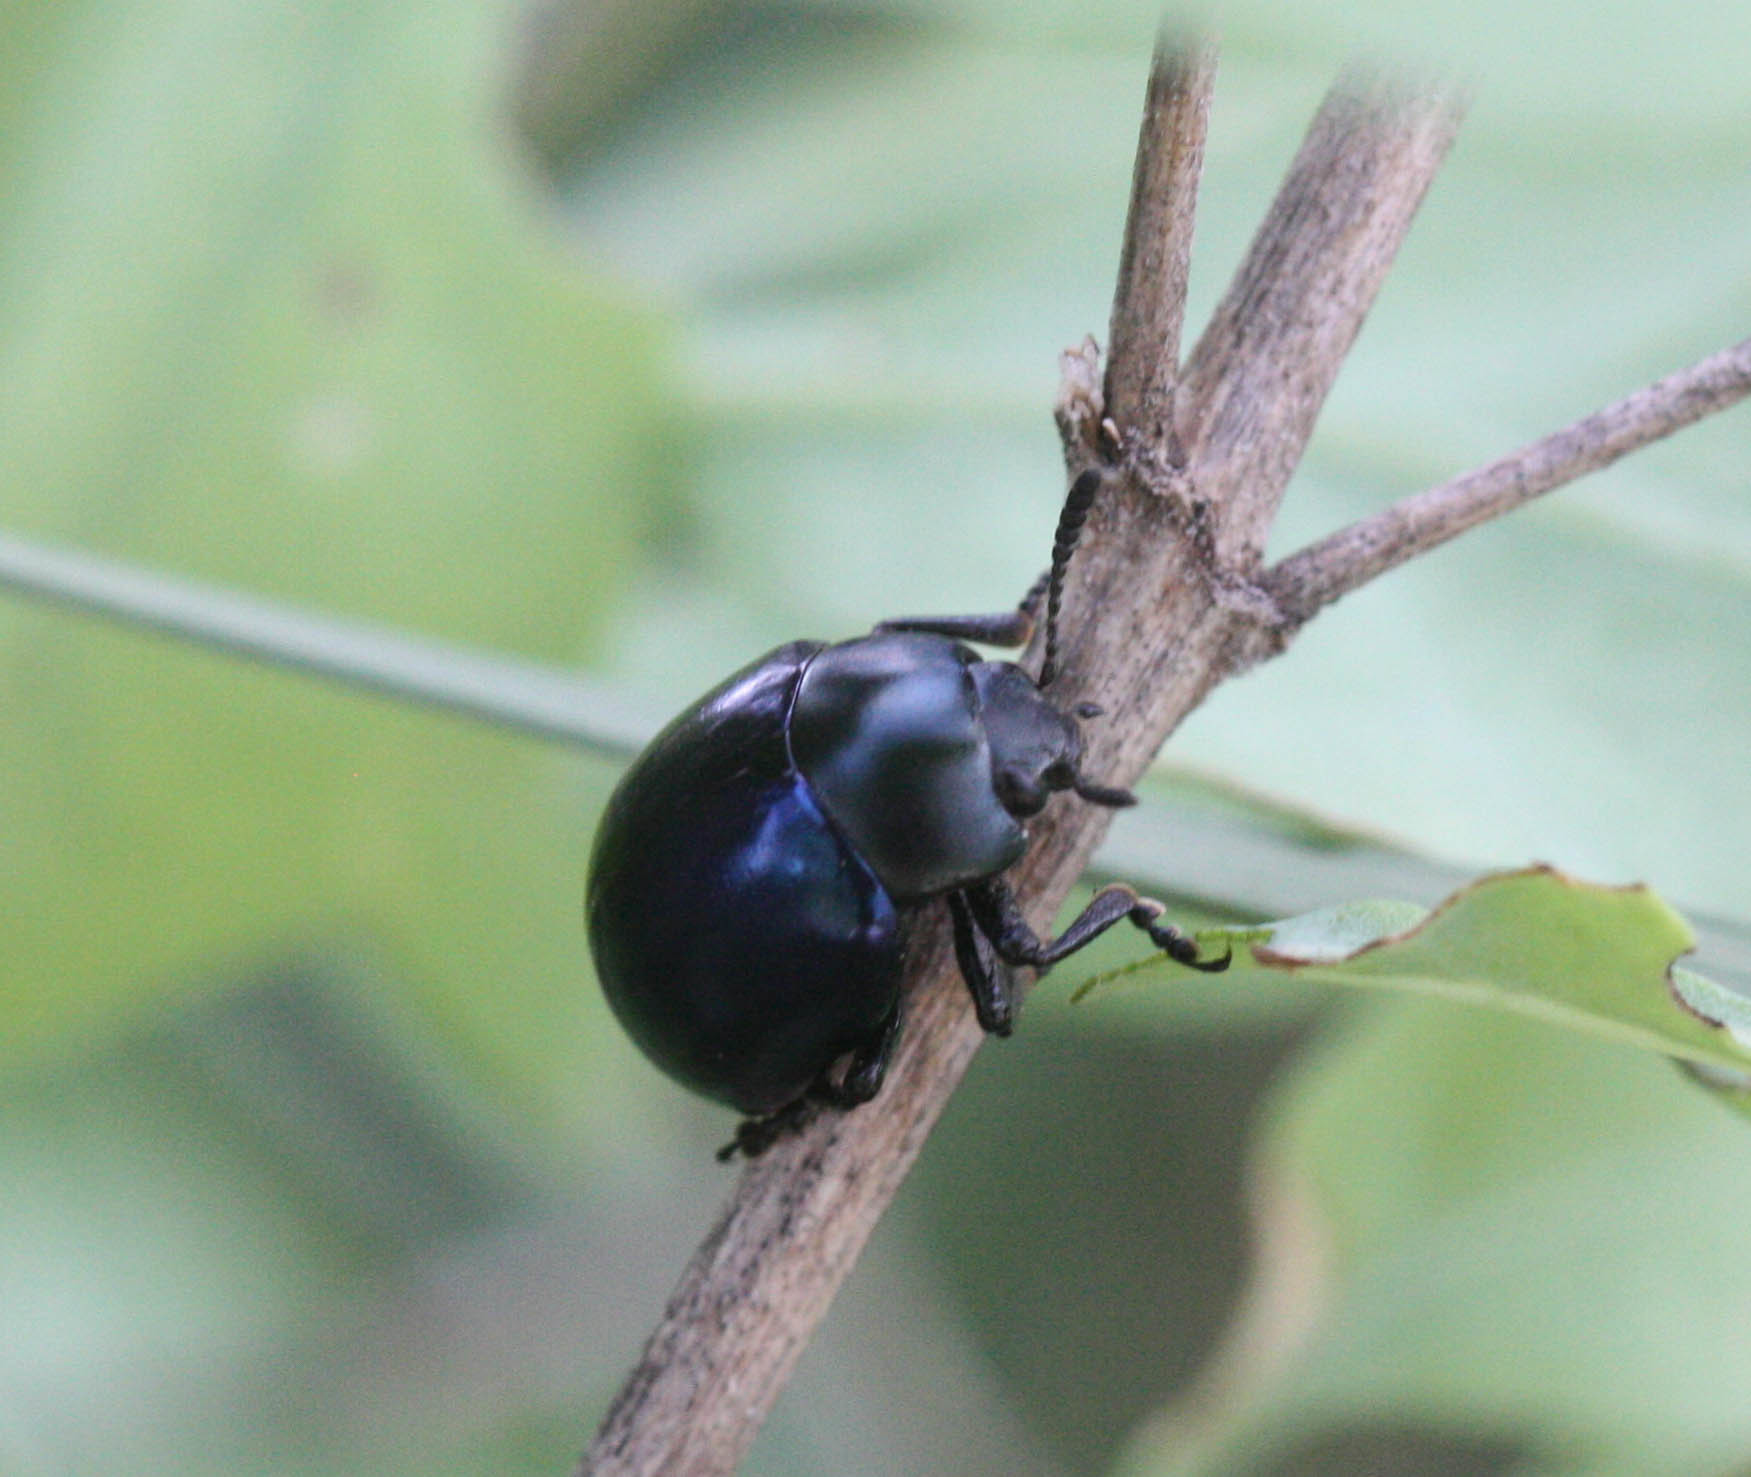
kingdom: Animalia
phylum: Arthropoda
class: Insecta
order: Coleoptera
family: Chrysomelidae
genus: Leptinotarsa
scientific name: Leptinotarsa haldemani
